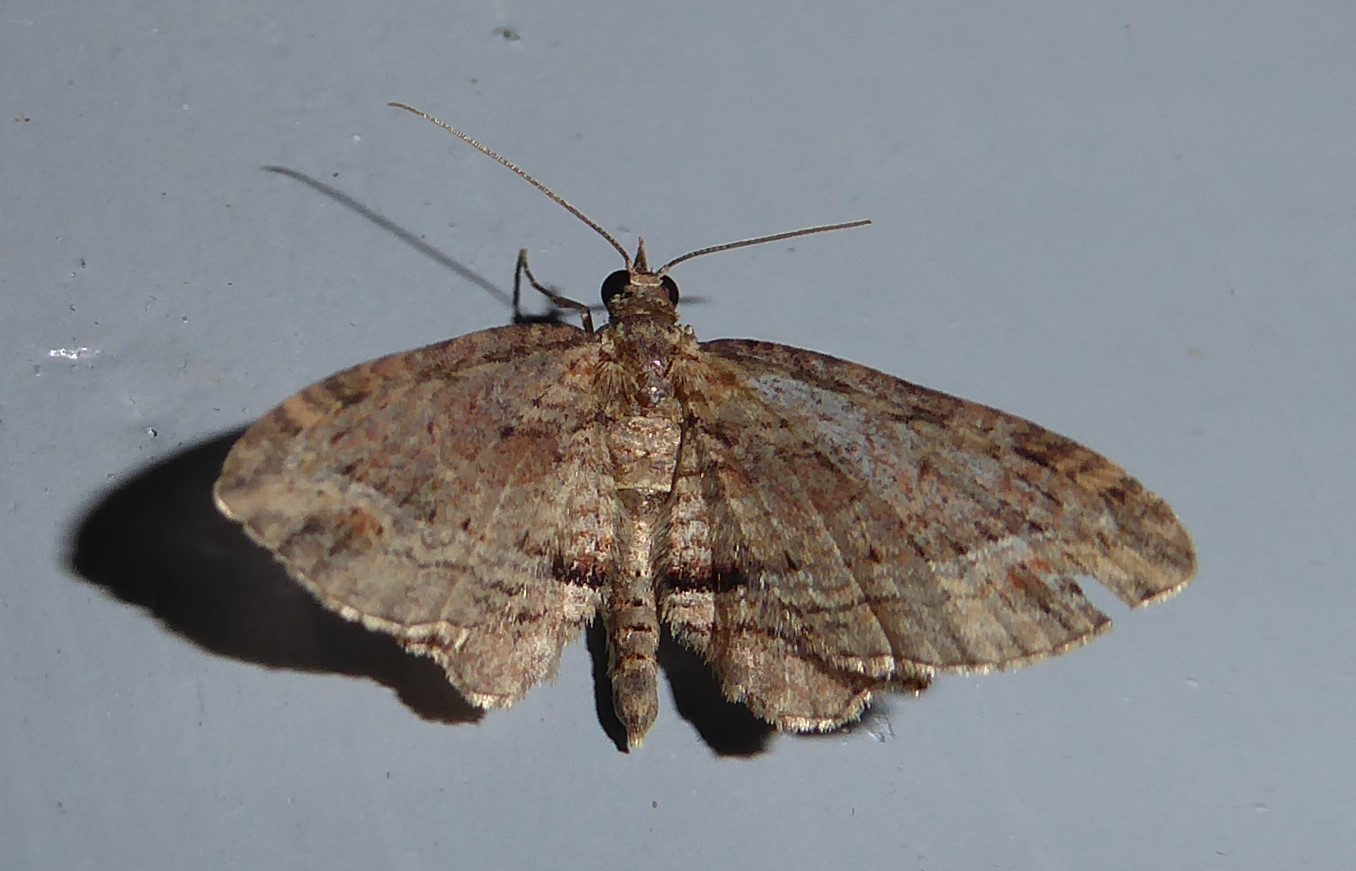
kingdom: Animalia
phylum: Arthropoda
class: Insecta
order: Lepidoptera
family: Geometridae
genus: Chloroclystis
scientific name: Chloroclystis filata
